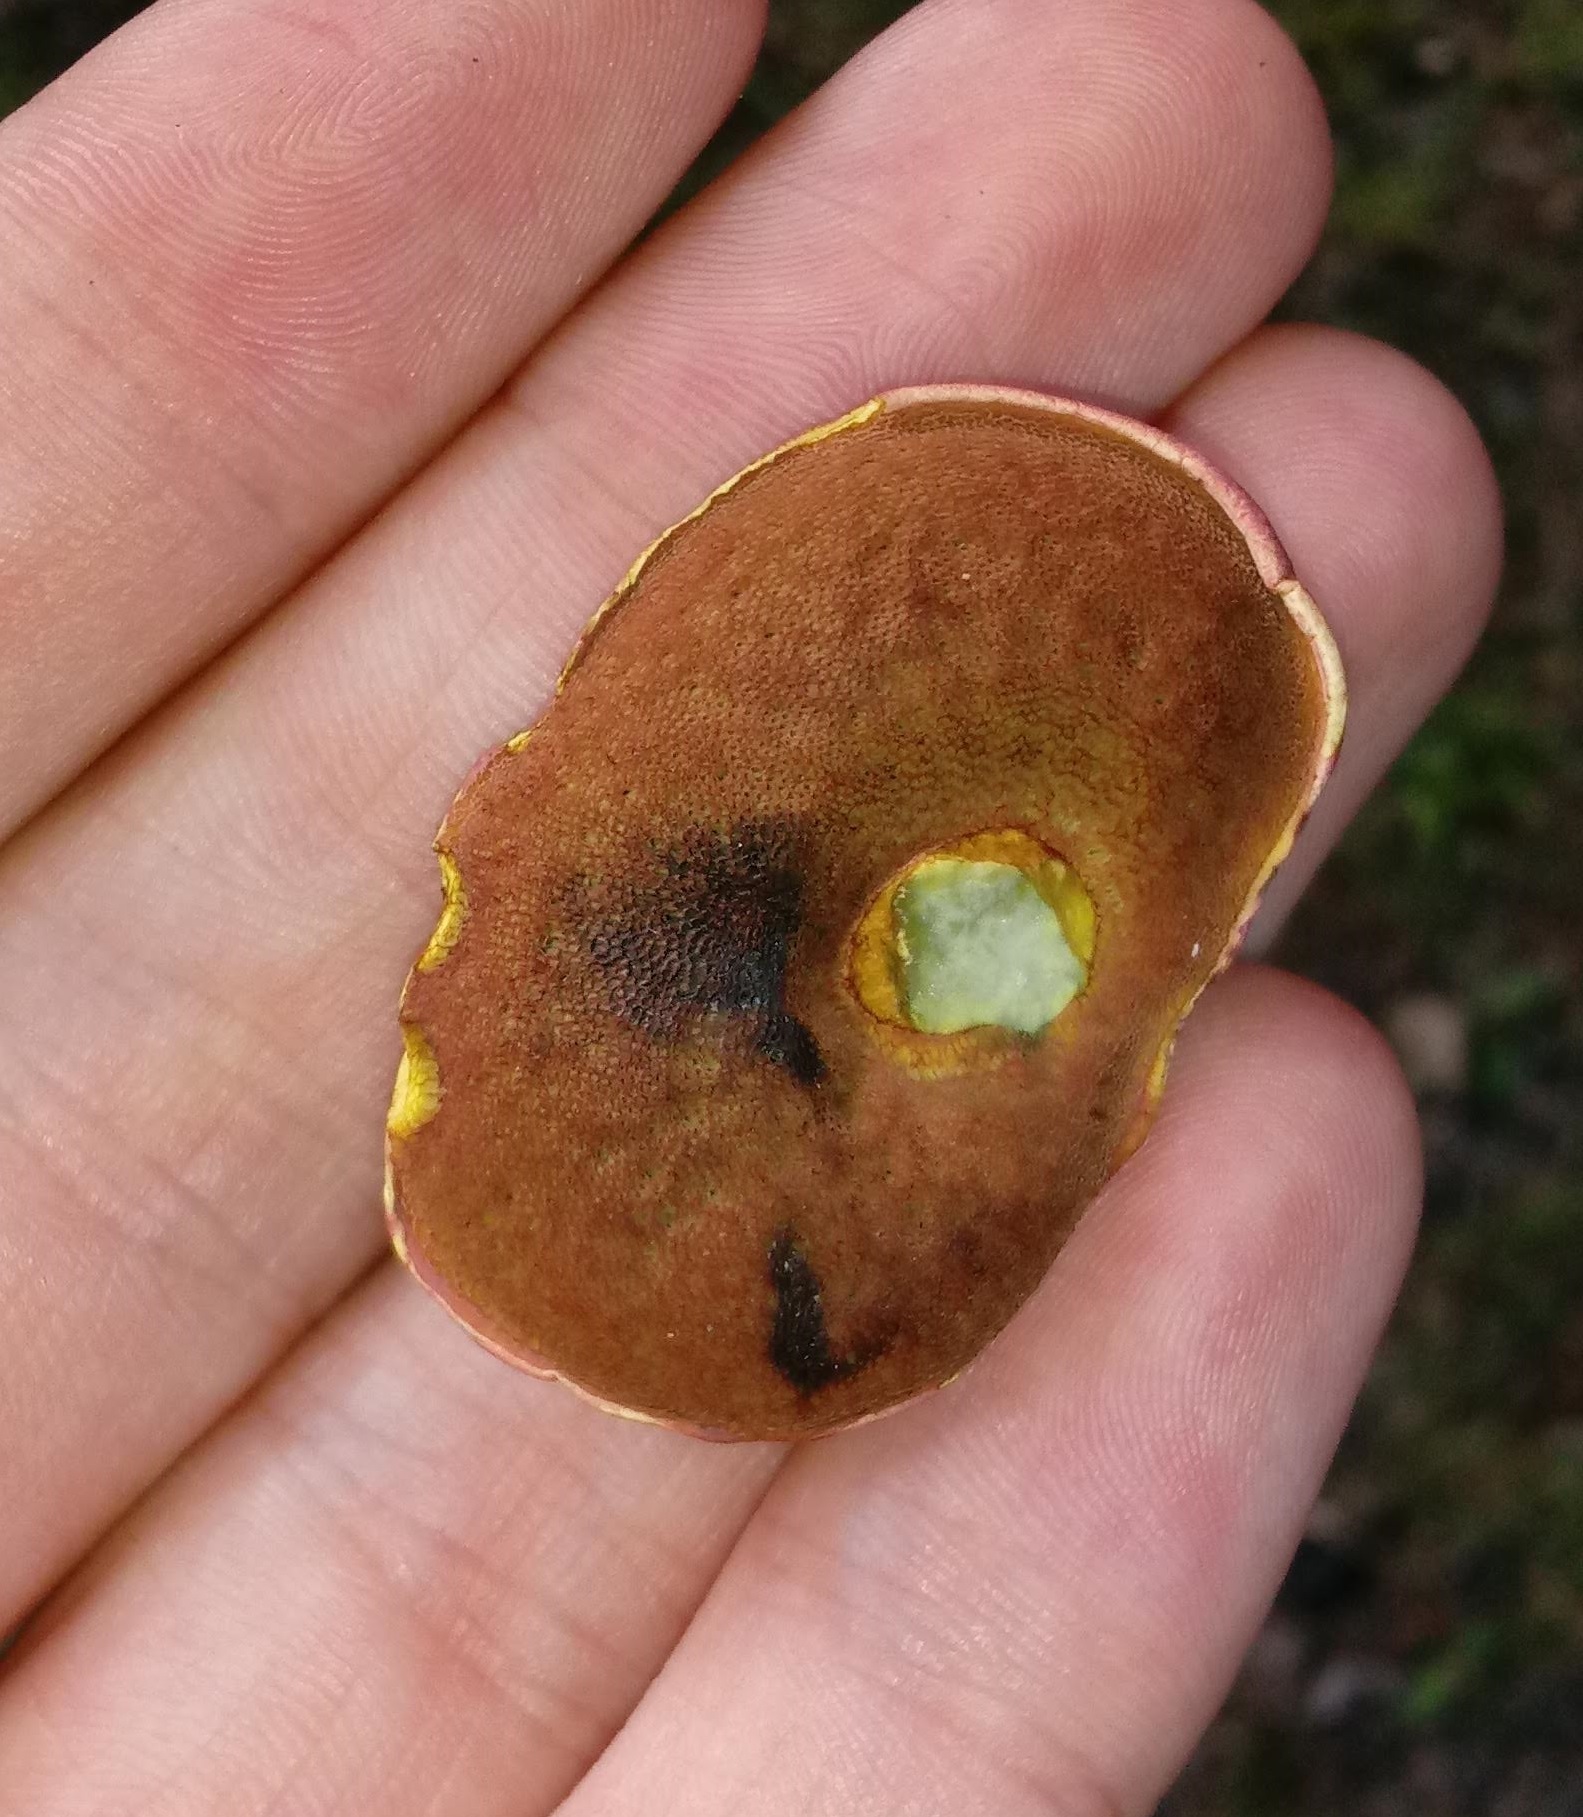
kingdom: Fungi
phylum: Basidiomycota
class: Agaricomycetes
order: Boletales
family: Boletaceae
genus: Boletus
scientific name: Boletus carminiporus
